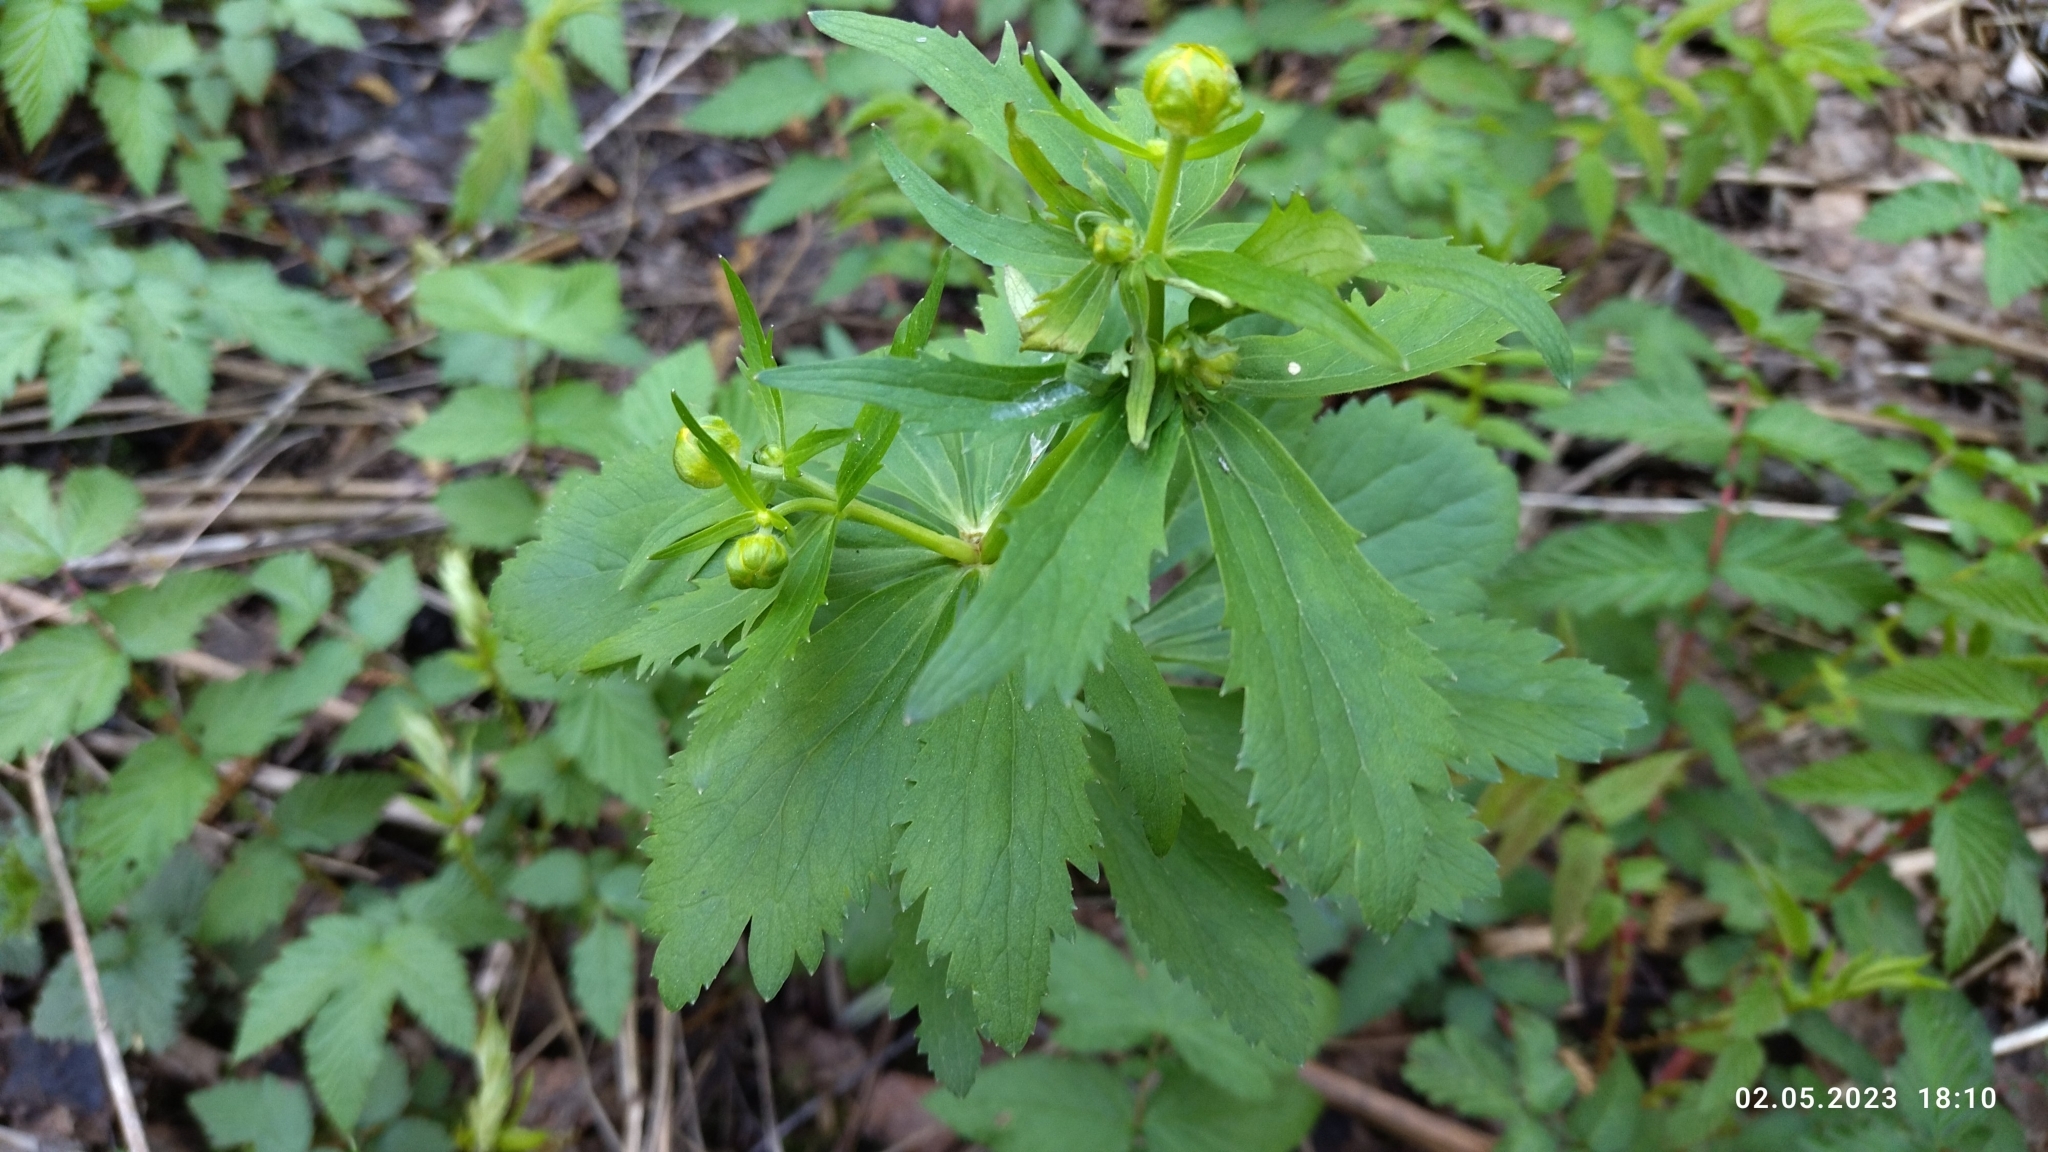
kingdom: Plantae
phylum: Tracheophyta
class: Magnoliopsida
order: Ranunculales
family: Ranunculaceae
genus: Ranunculus
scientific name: Ranunculus cassubicus
